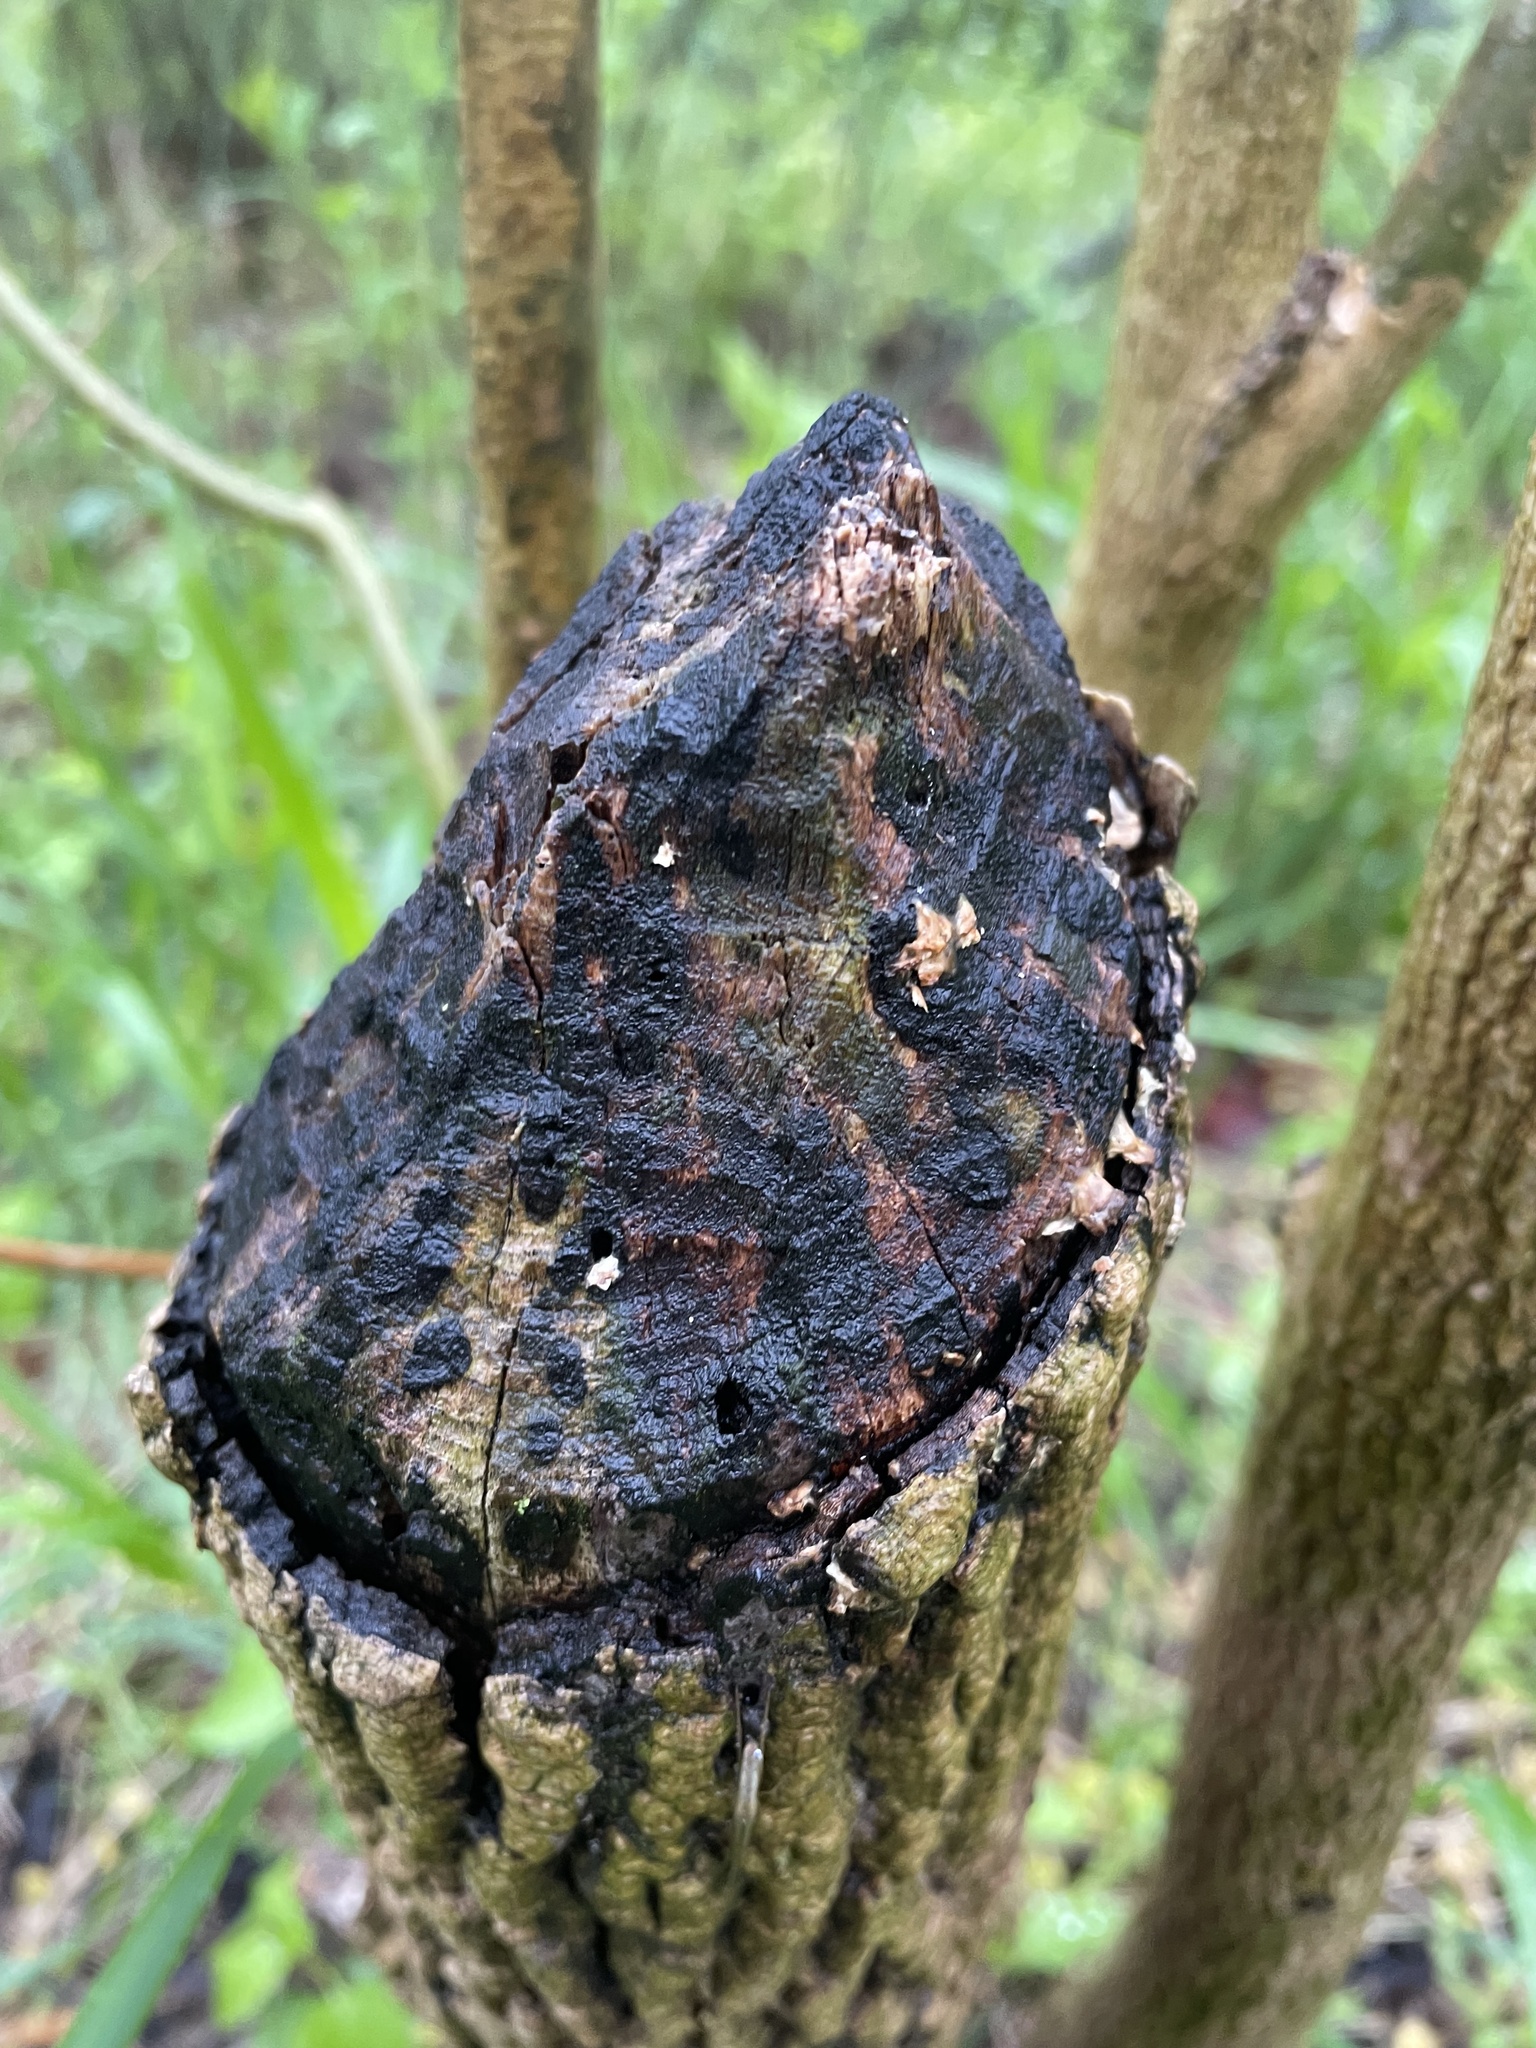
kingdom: Animalia
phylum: Chordata
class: Mammalia
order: Rodentia
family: Castoridae
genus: Castor
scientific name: Castor canadensis
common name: American beaver
